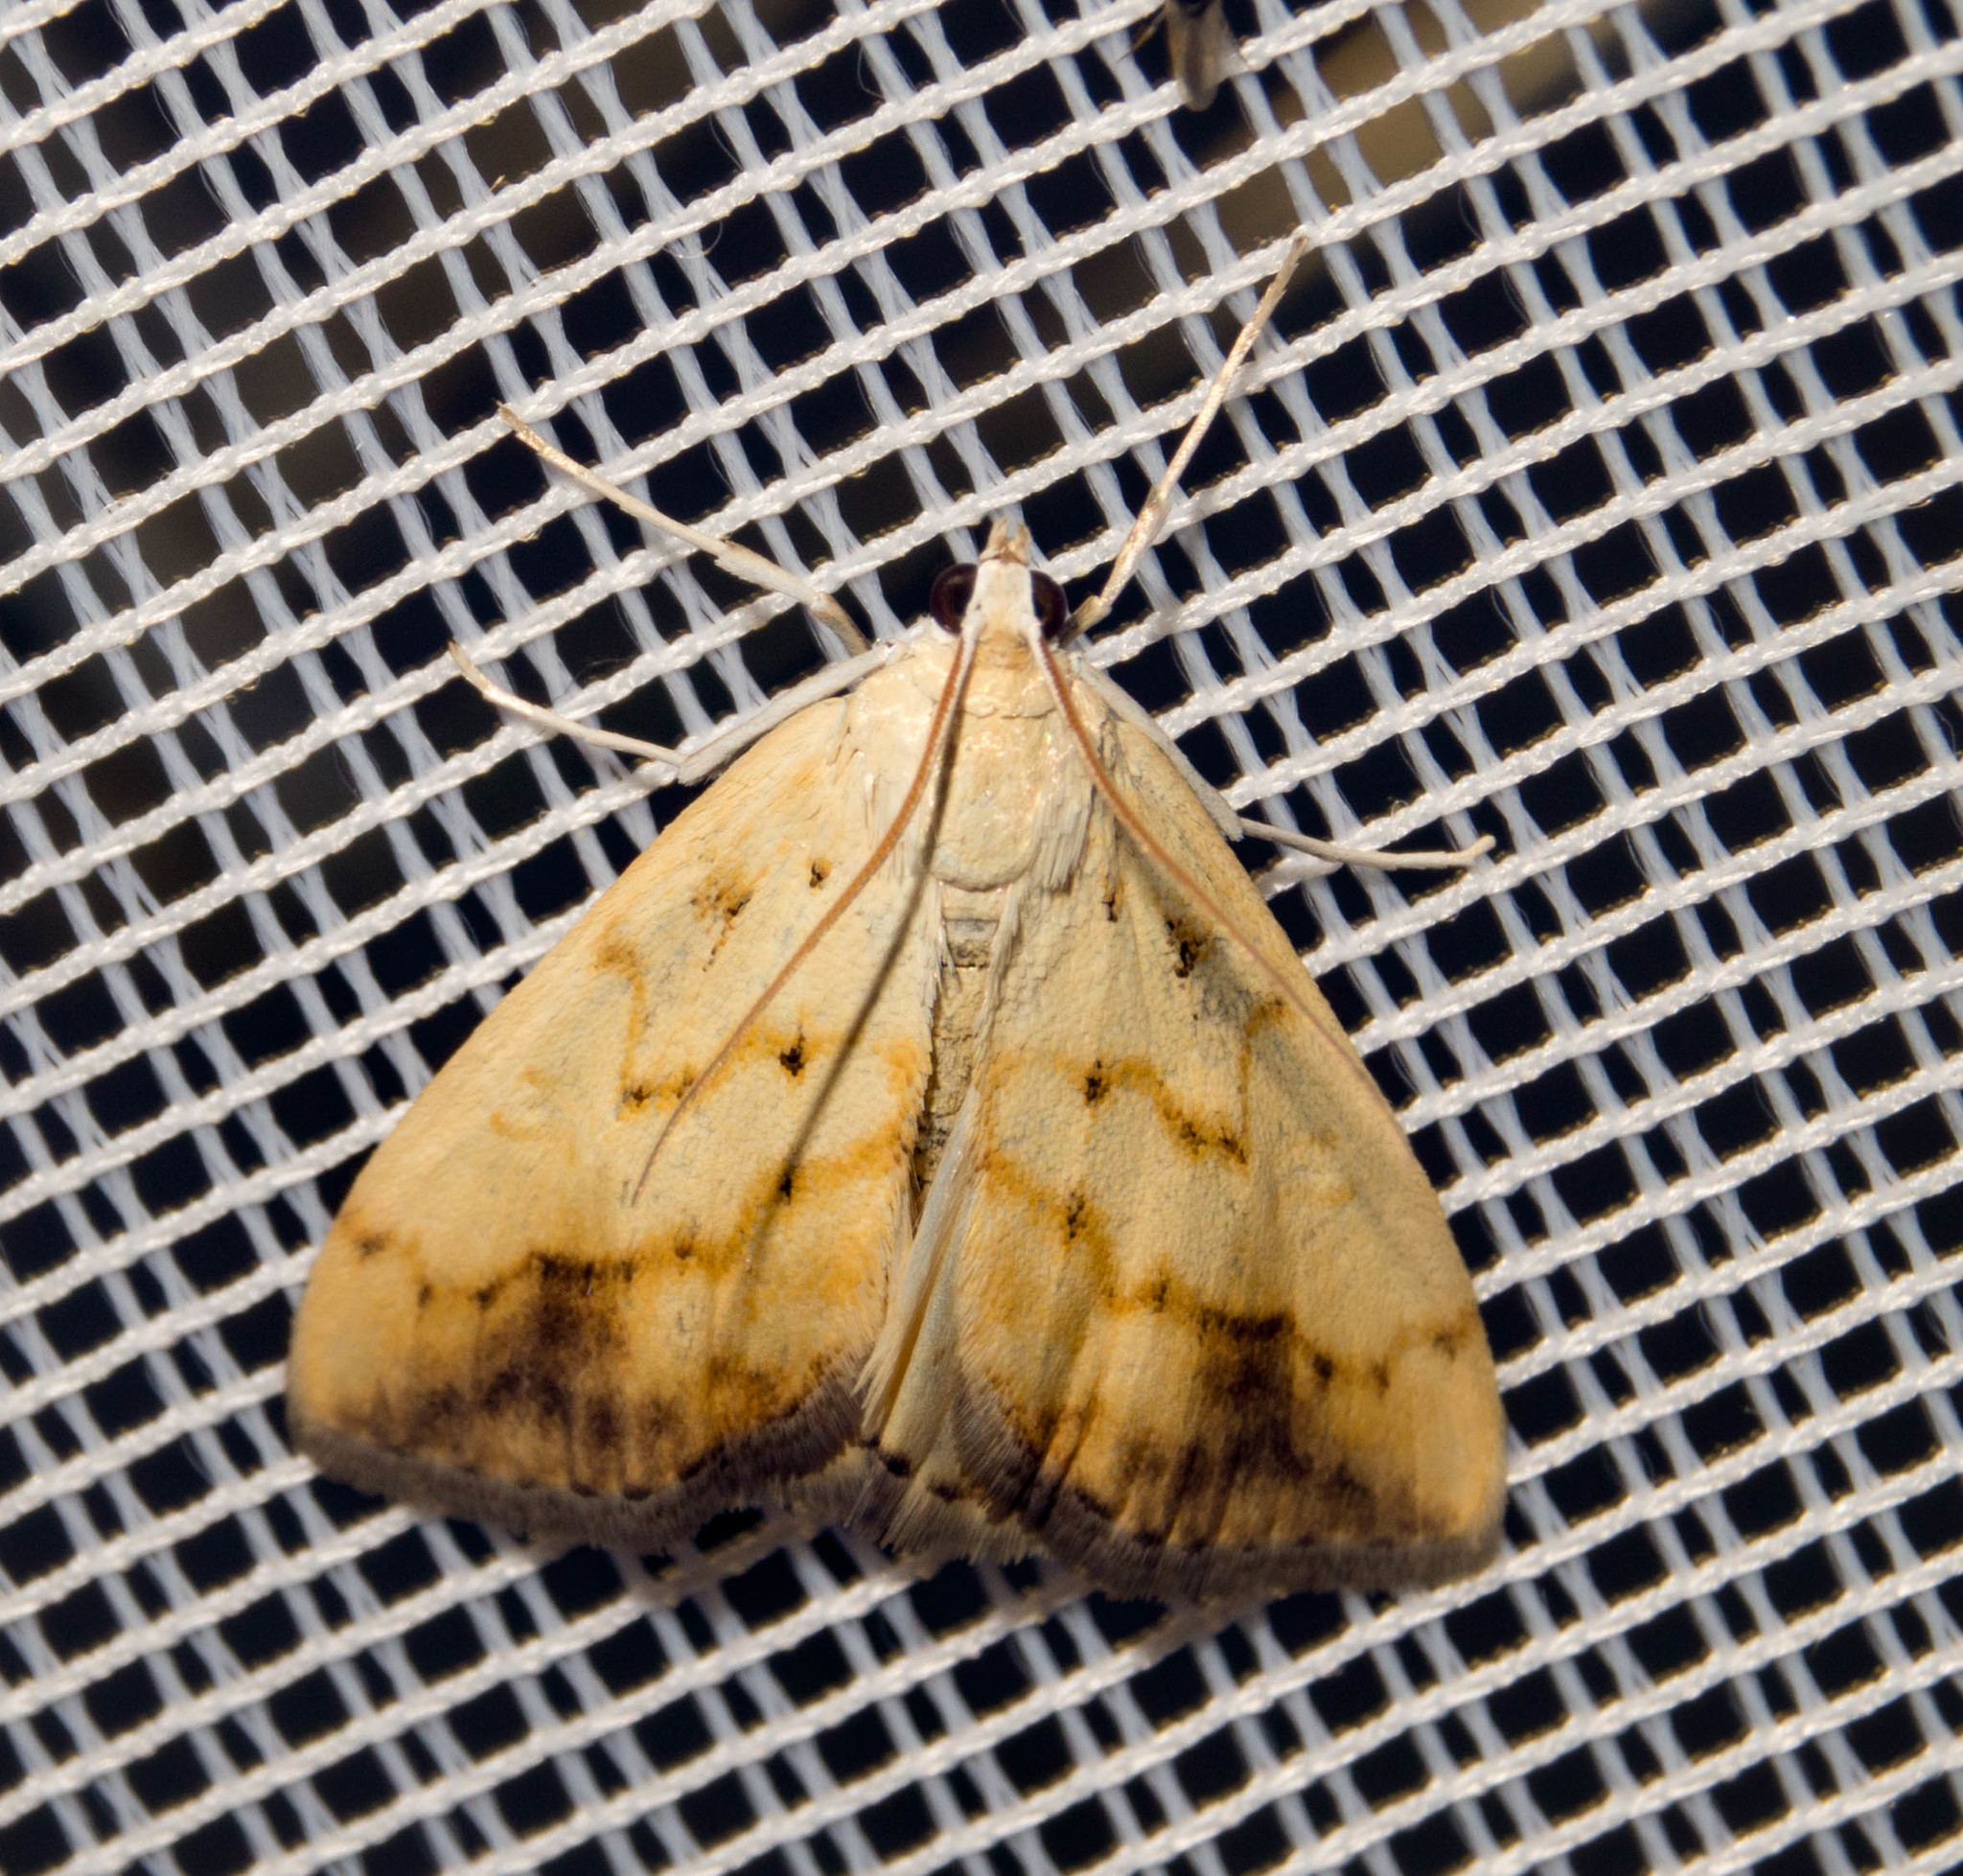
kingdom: Animalia
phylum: Arthropoda
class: Insecta
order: Lepidoptera
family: Crambidae
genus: Evergestis
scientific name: Evergestis extimalis
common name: Marbled yellow pearl
